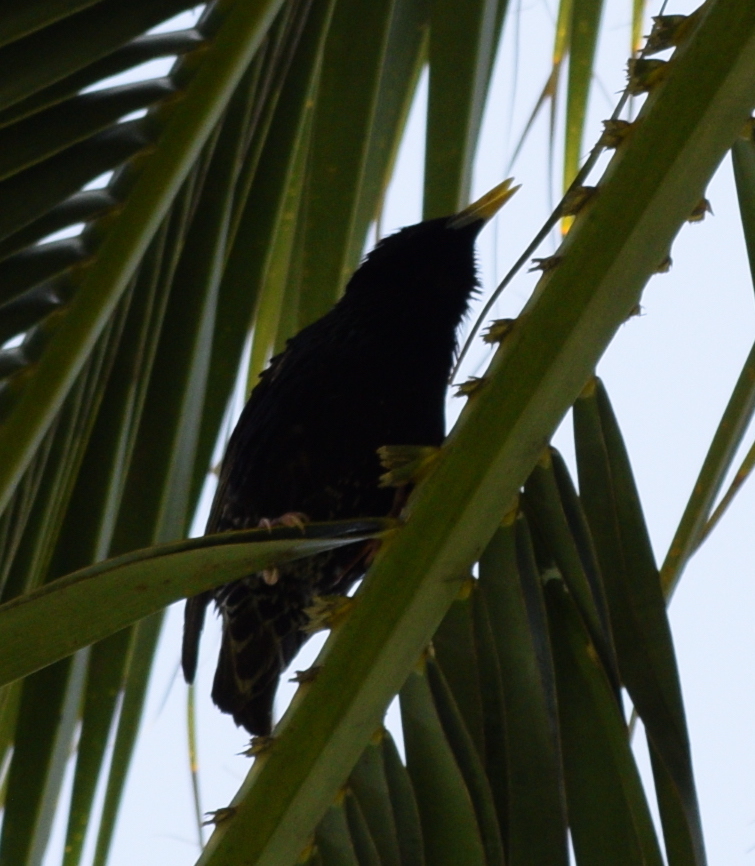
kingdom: Animalia
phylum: Chordata
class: Aves
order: Passeriformes
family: Sturnidae
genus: Sturnus
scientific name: Sturnus vulgaris
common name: Common starling
